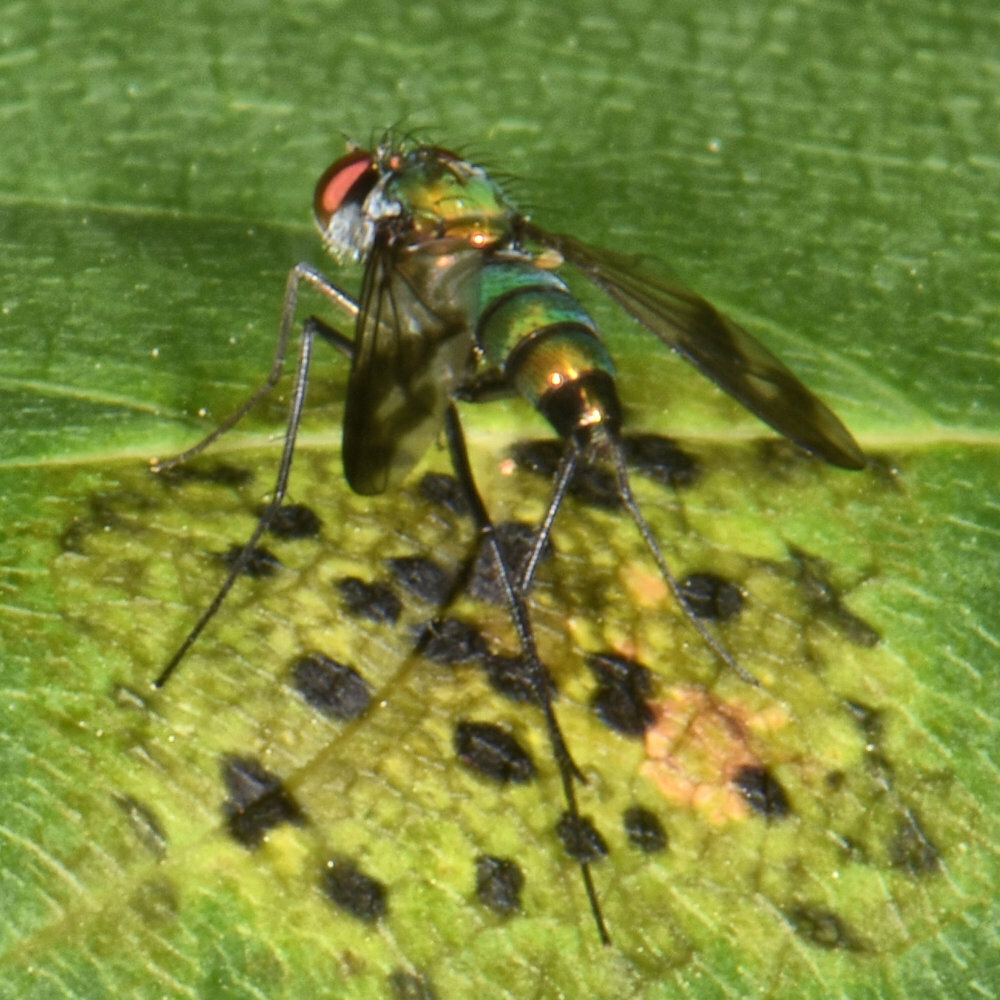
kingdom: Animalia
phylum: Arthropoda
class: Insecta
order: Diptera
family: Dolichopodidae
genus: Condylostylus
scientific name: Condylostylus patibulatus
